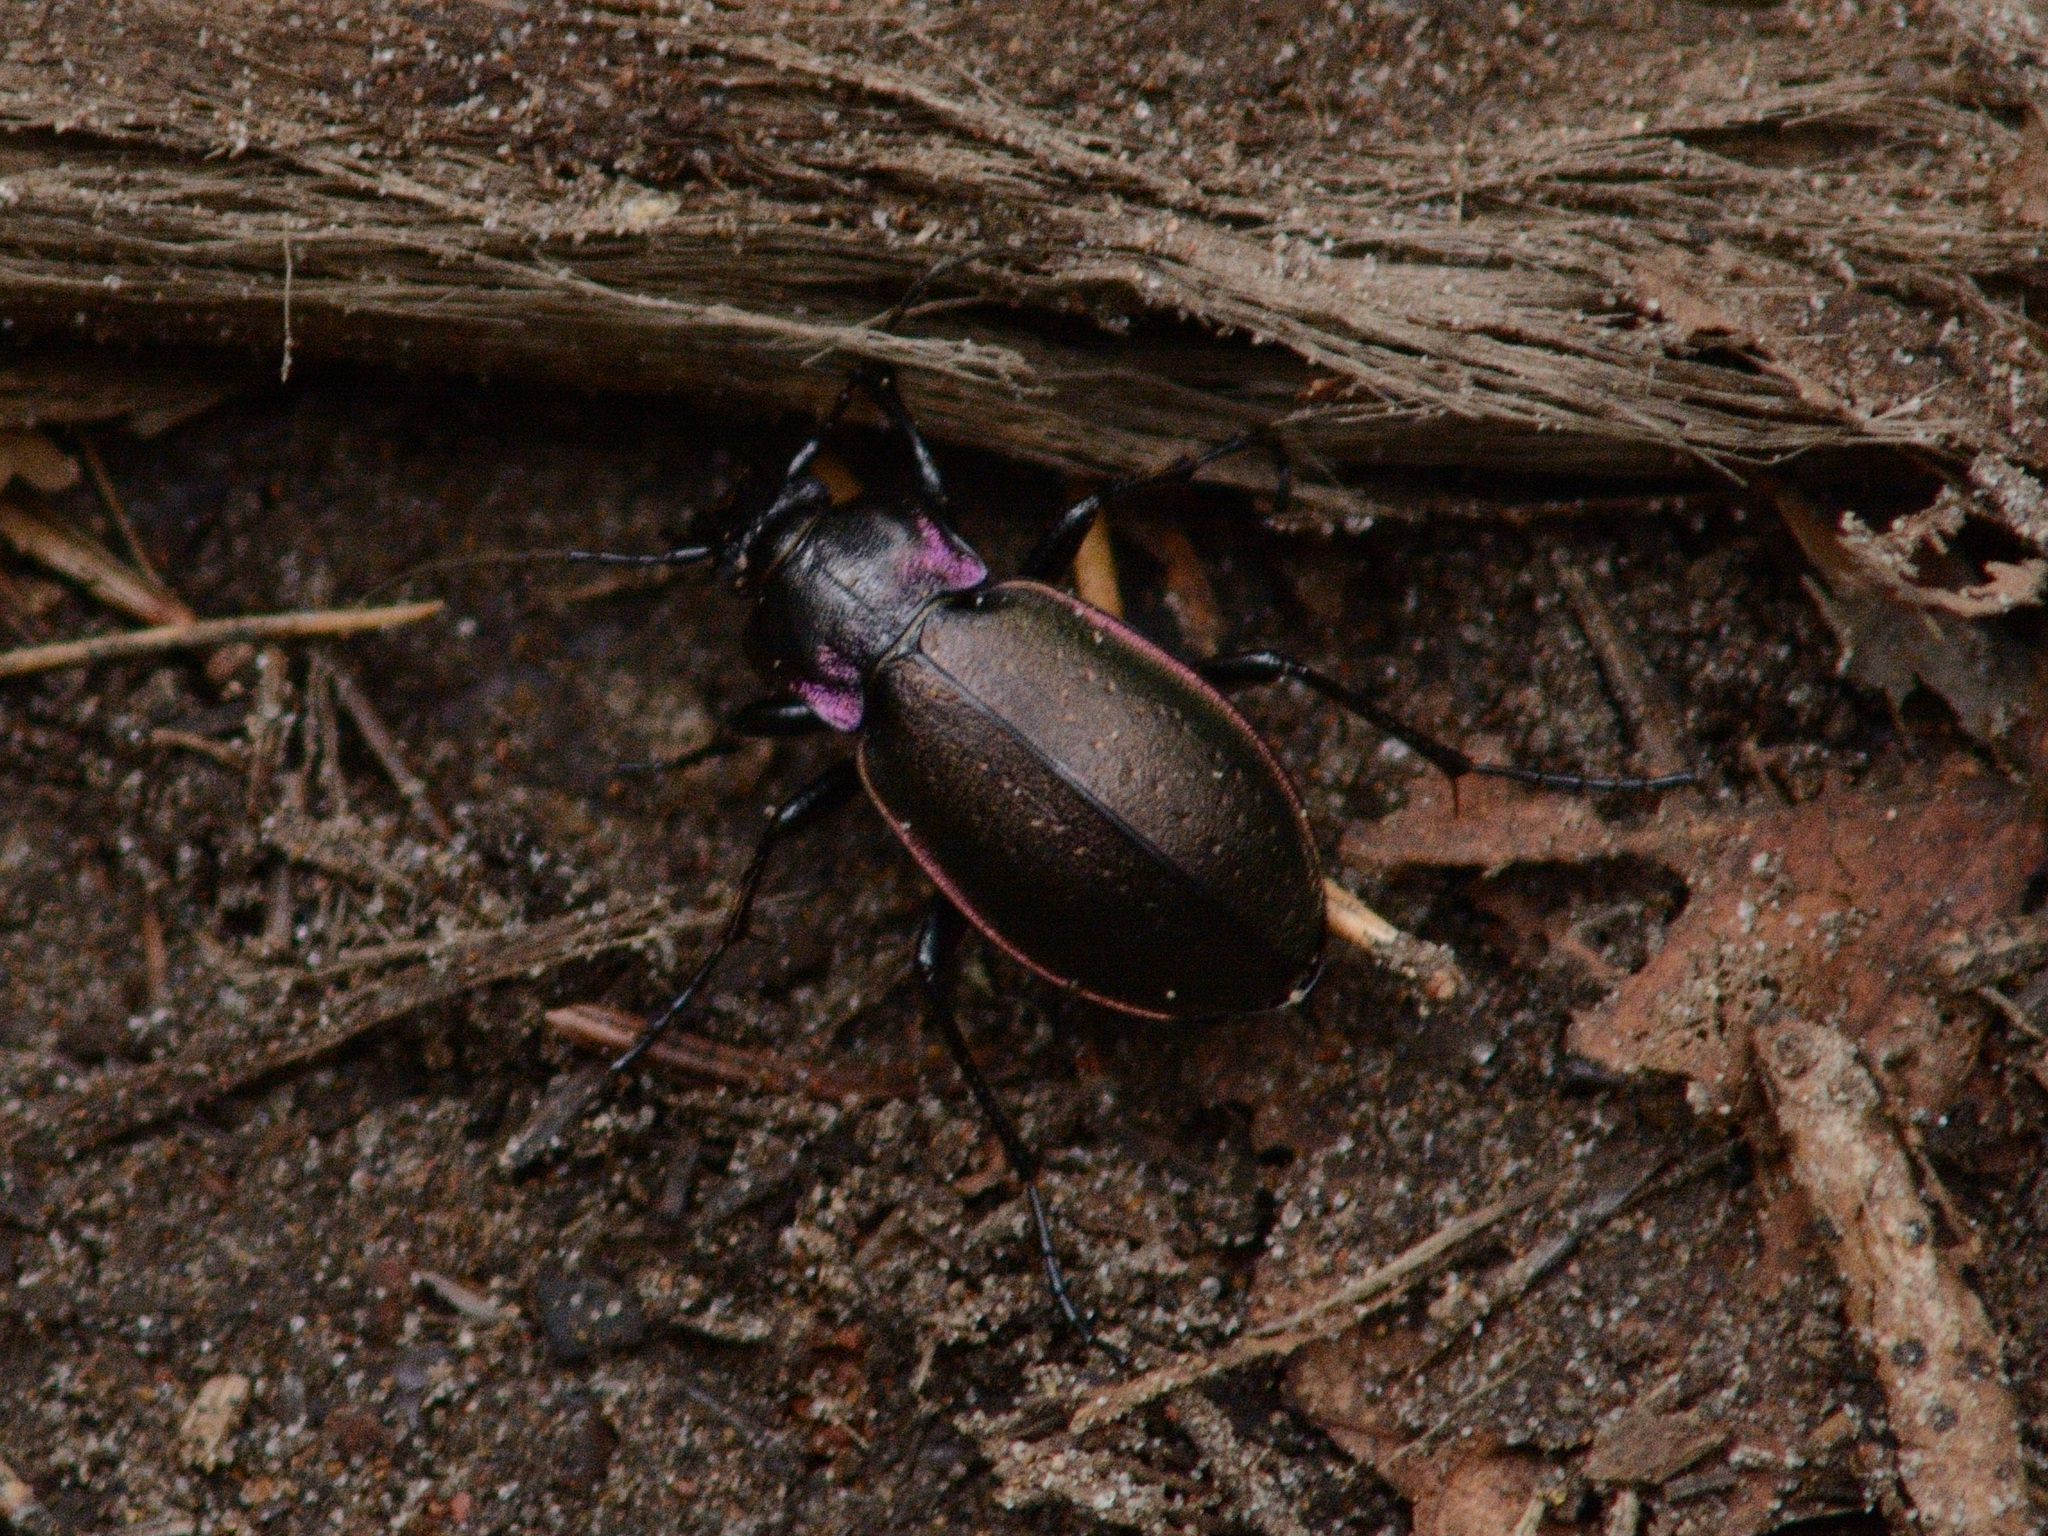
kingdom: Animalia
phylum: Arthropoda
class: Insecta
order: Coleoptera
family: Carabidae
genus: Carabus
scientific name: Carabus nemoralis
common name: European ground beetle
